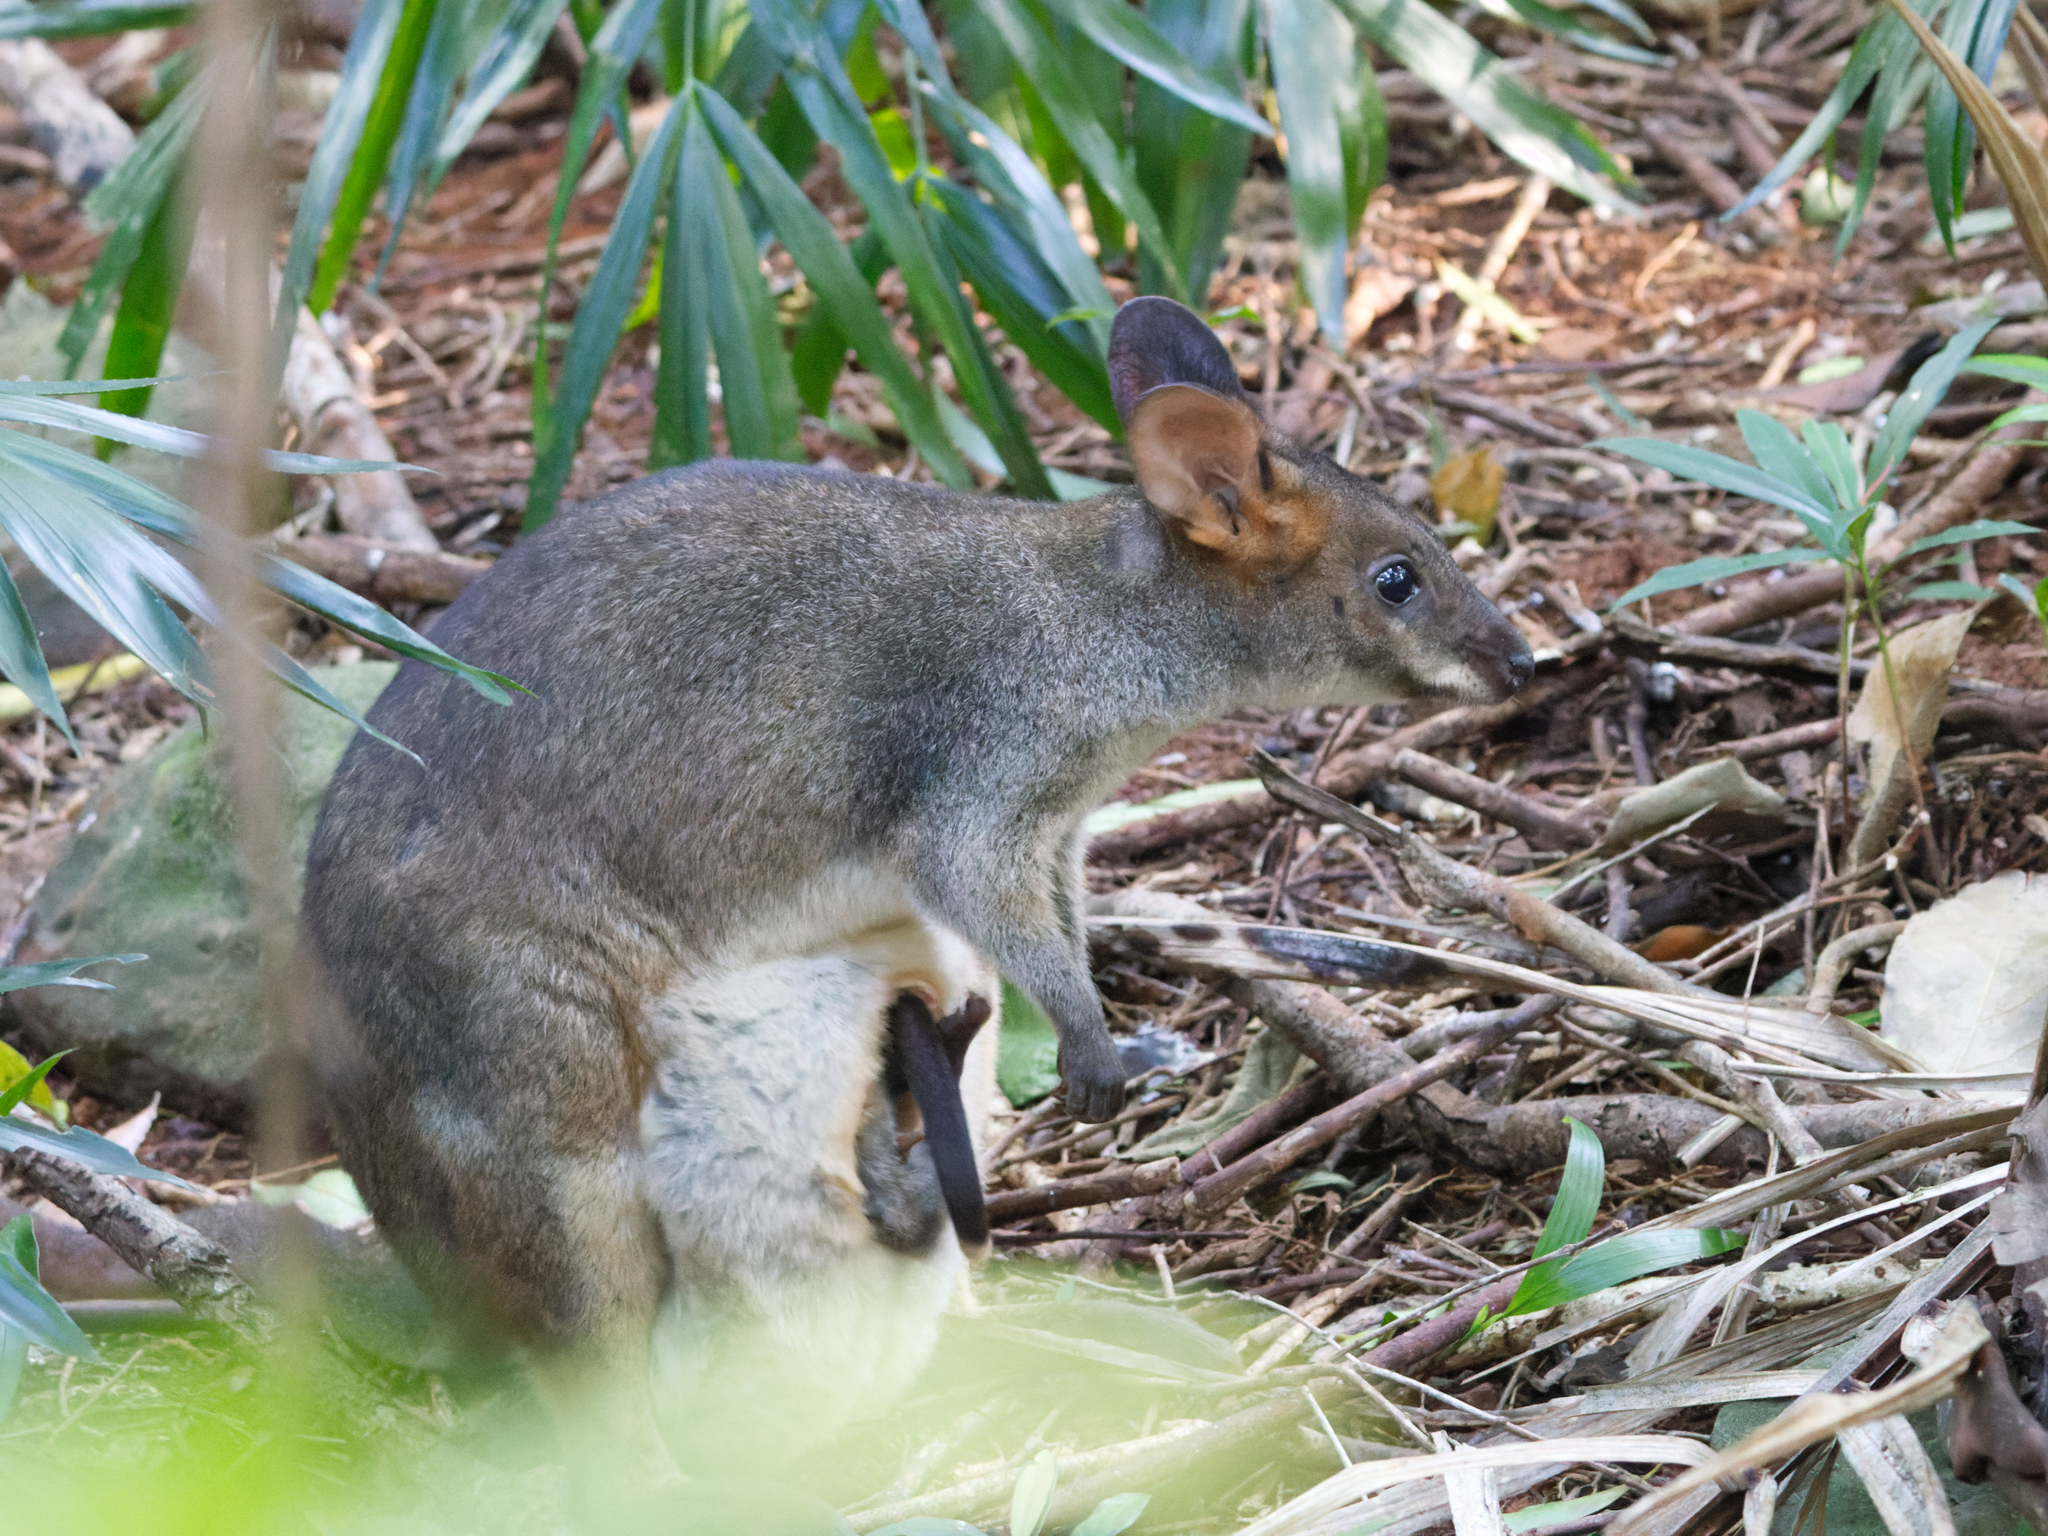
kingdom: Animalia
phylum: Chordata
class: Mammalia
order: Diprotodontia
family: Macropodidae
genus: Thylogale
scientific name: Thylogale stigmatica
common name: Red-legged pademelon
